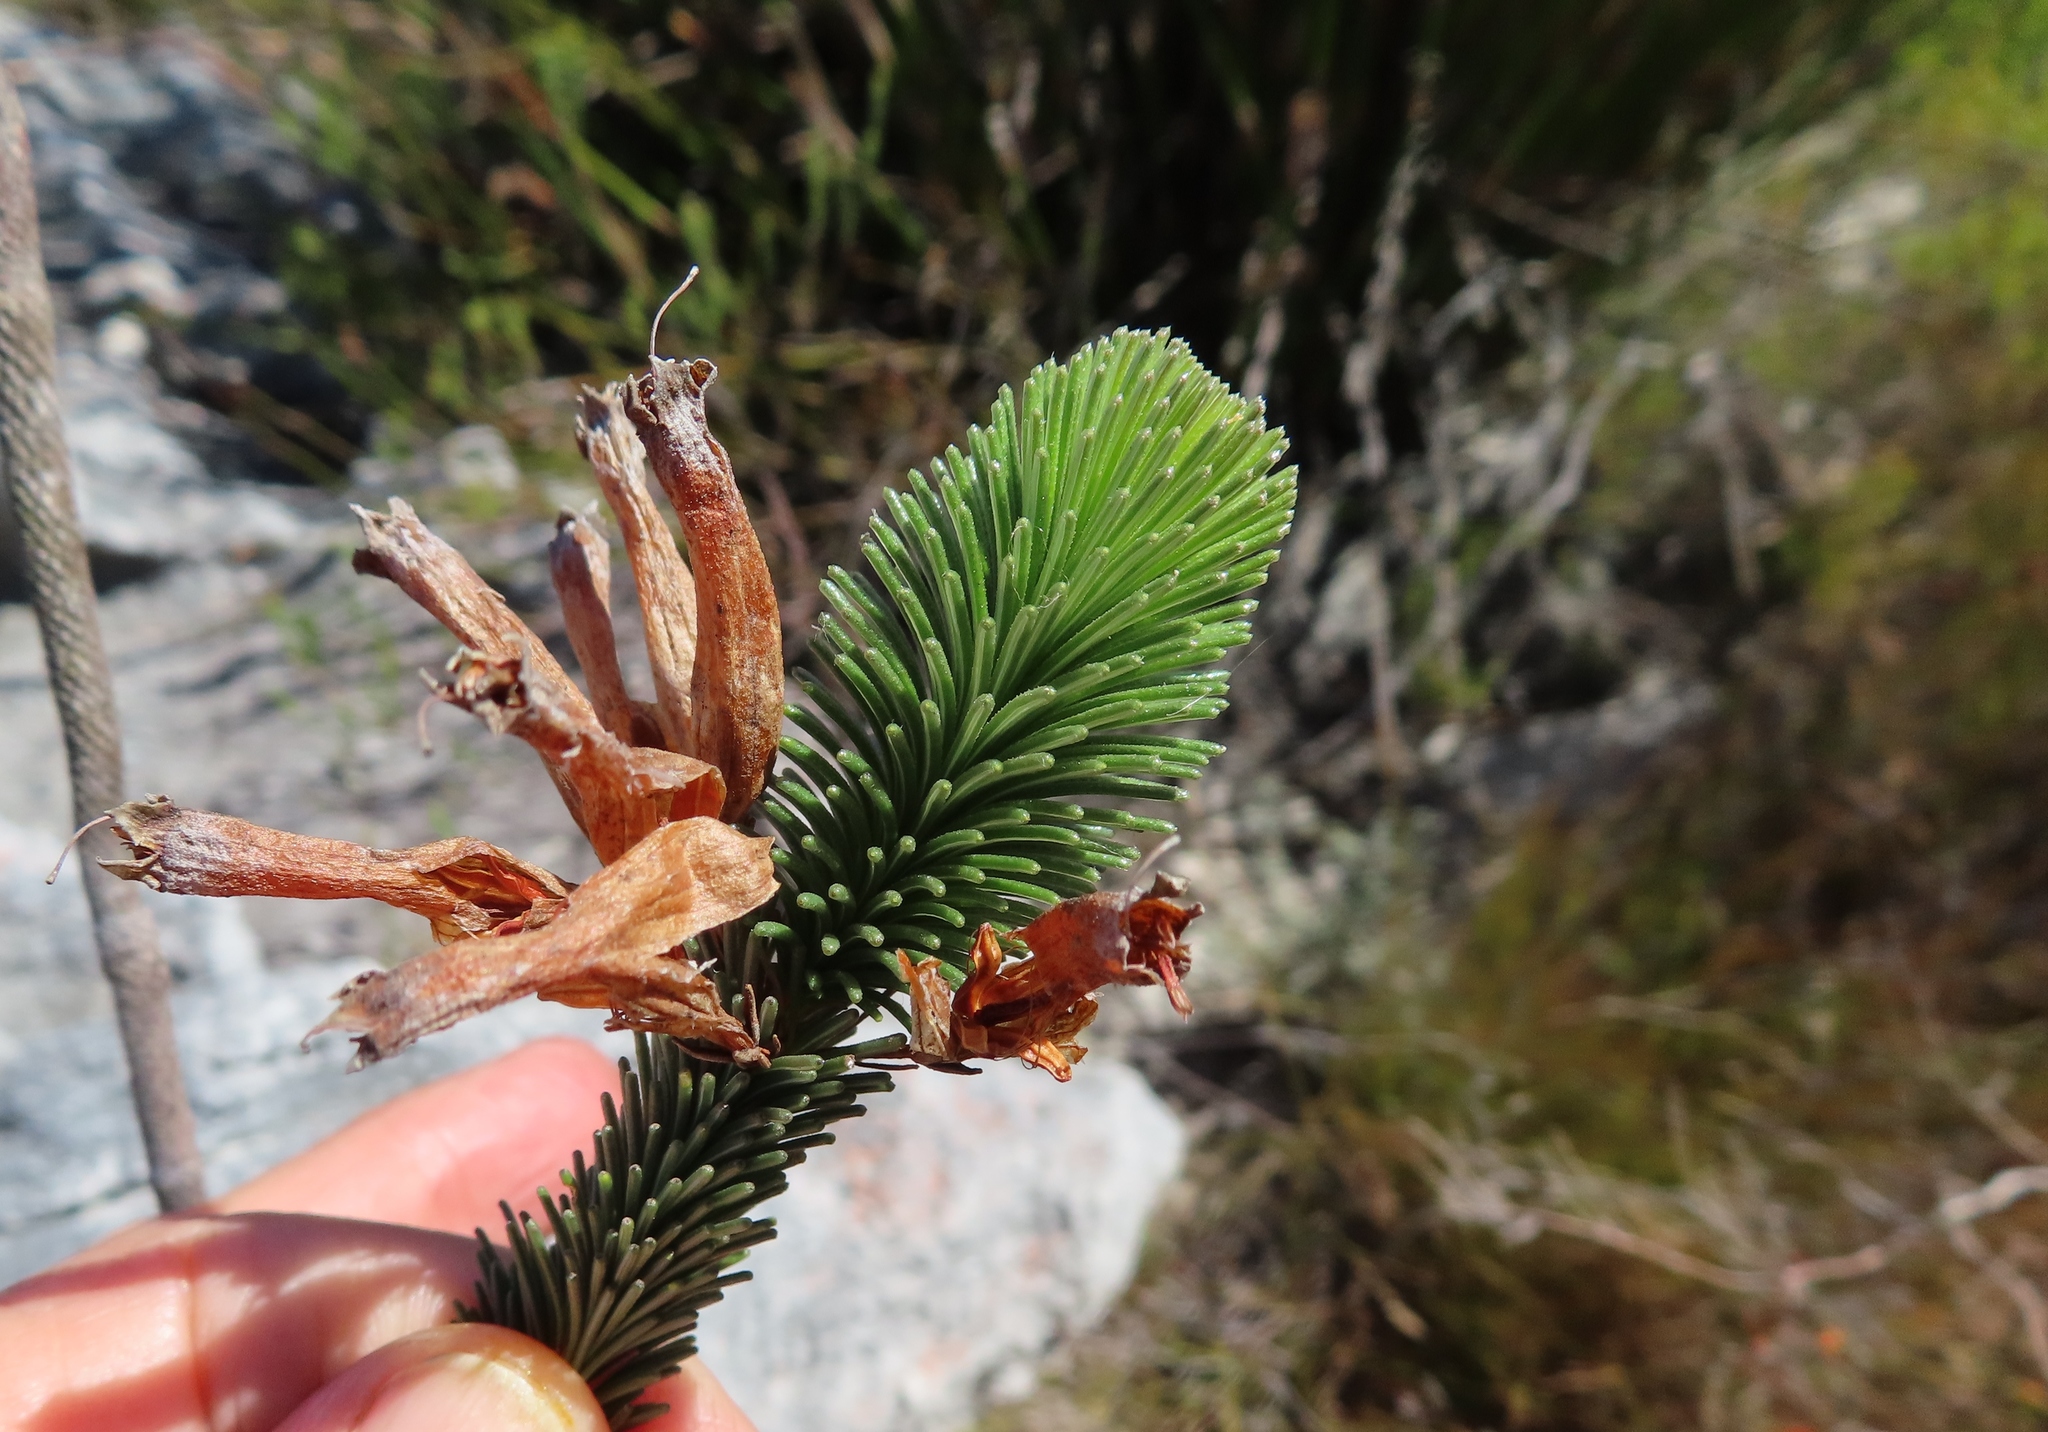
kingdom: Plantae
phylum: Tracheophyta
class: Magnoliopsida
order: Ericales
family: Ericaceae
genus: Erica
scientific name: Erica fascicularis
